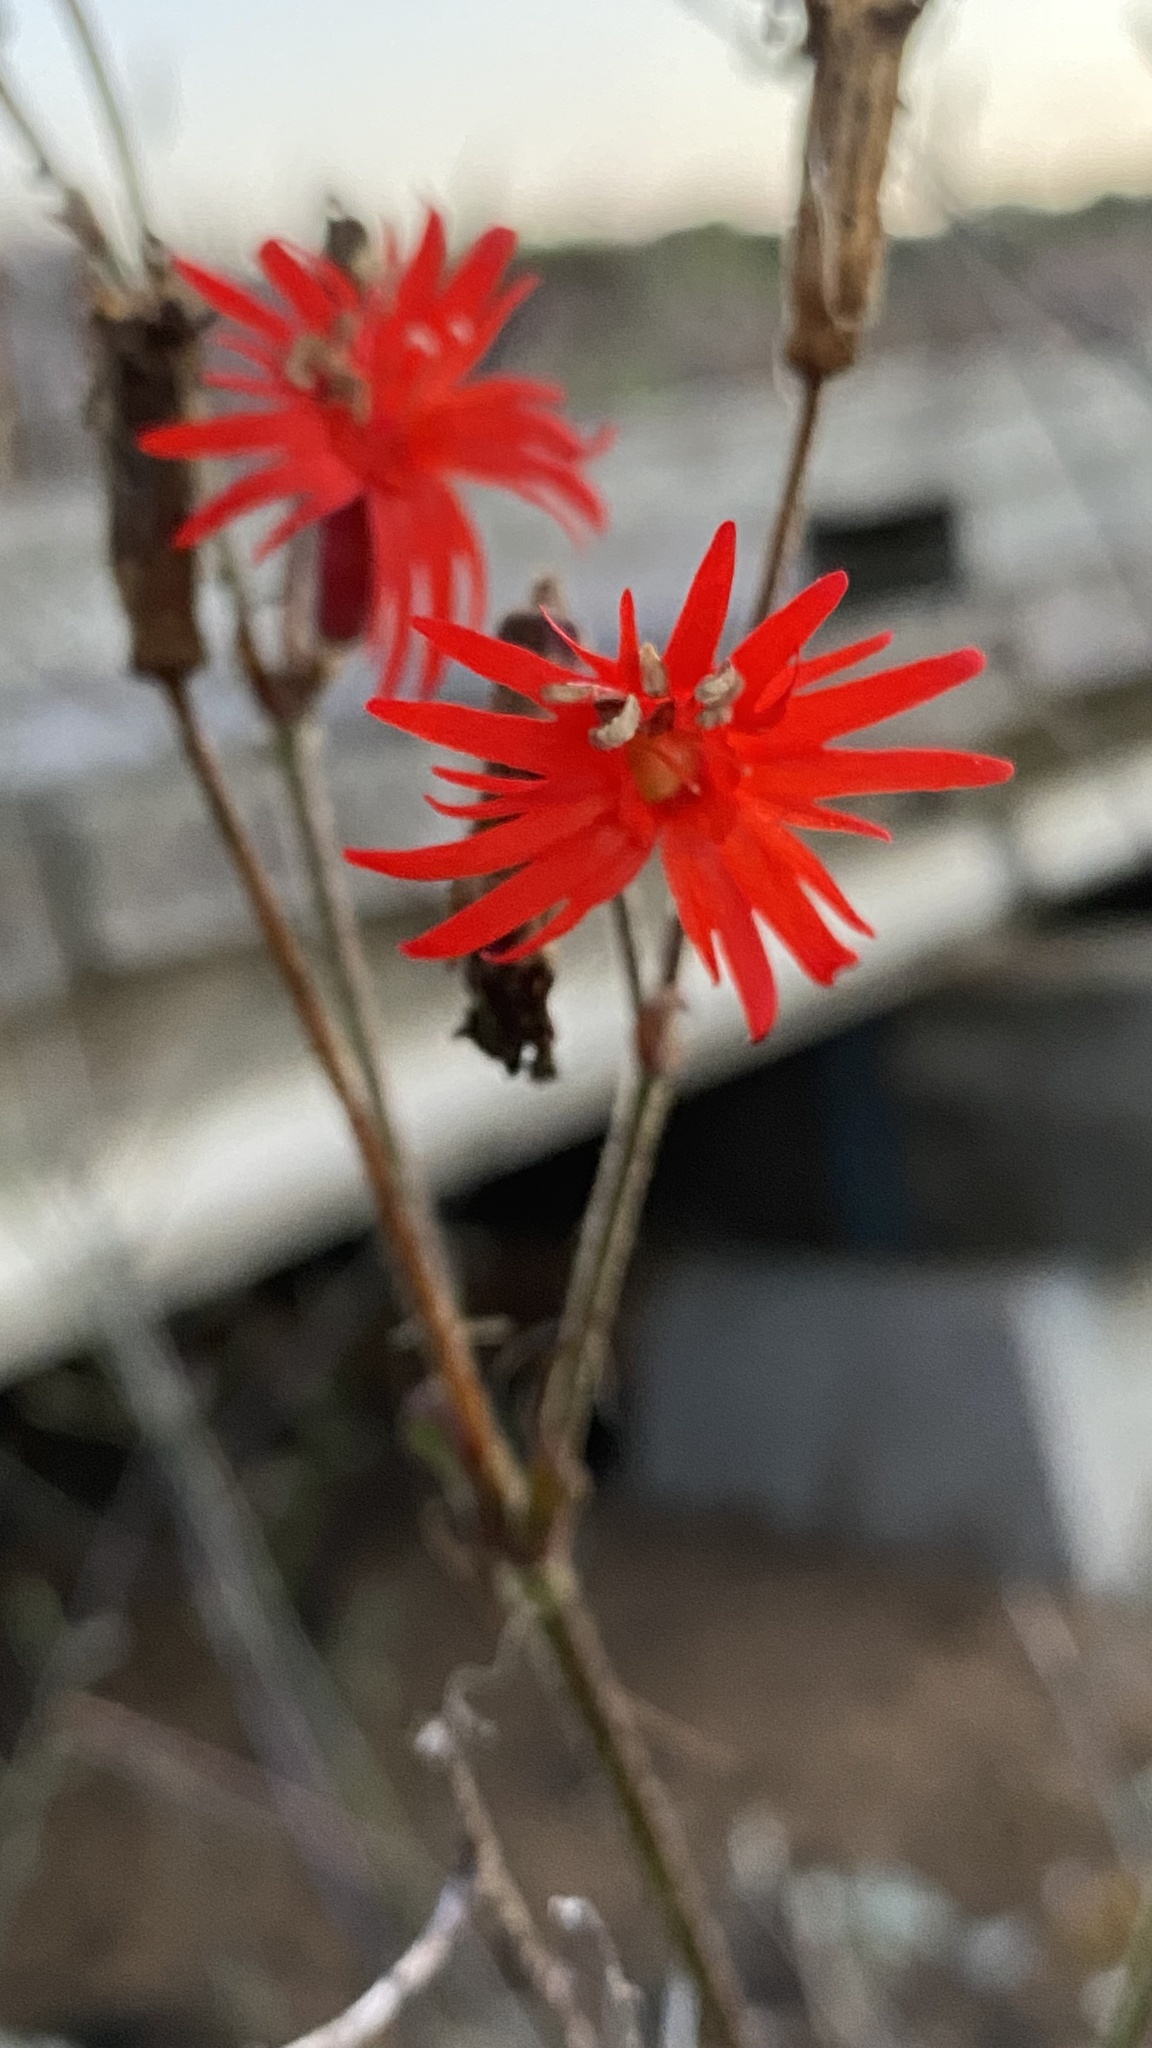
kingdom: Plantae
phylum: Tracheophyta
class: Magnoliopsida
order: Caryophyllales
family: Caryophyllaceae
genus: Silene
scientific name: Silene laciniata
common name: Indian-pink
